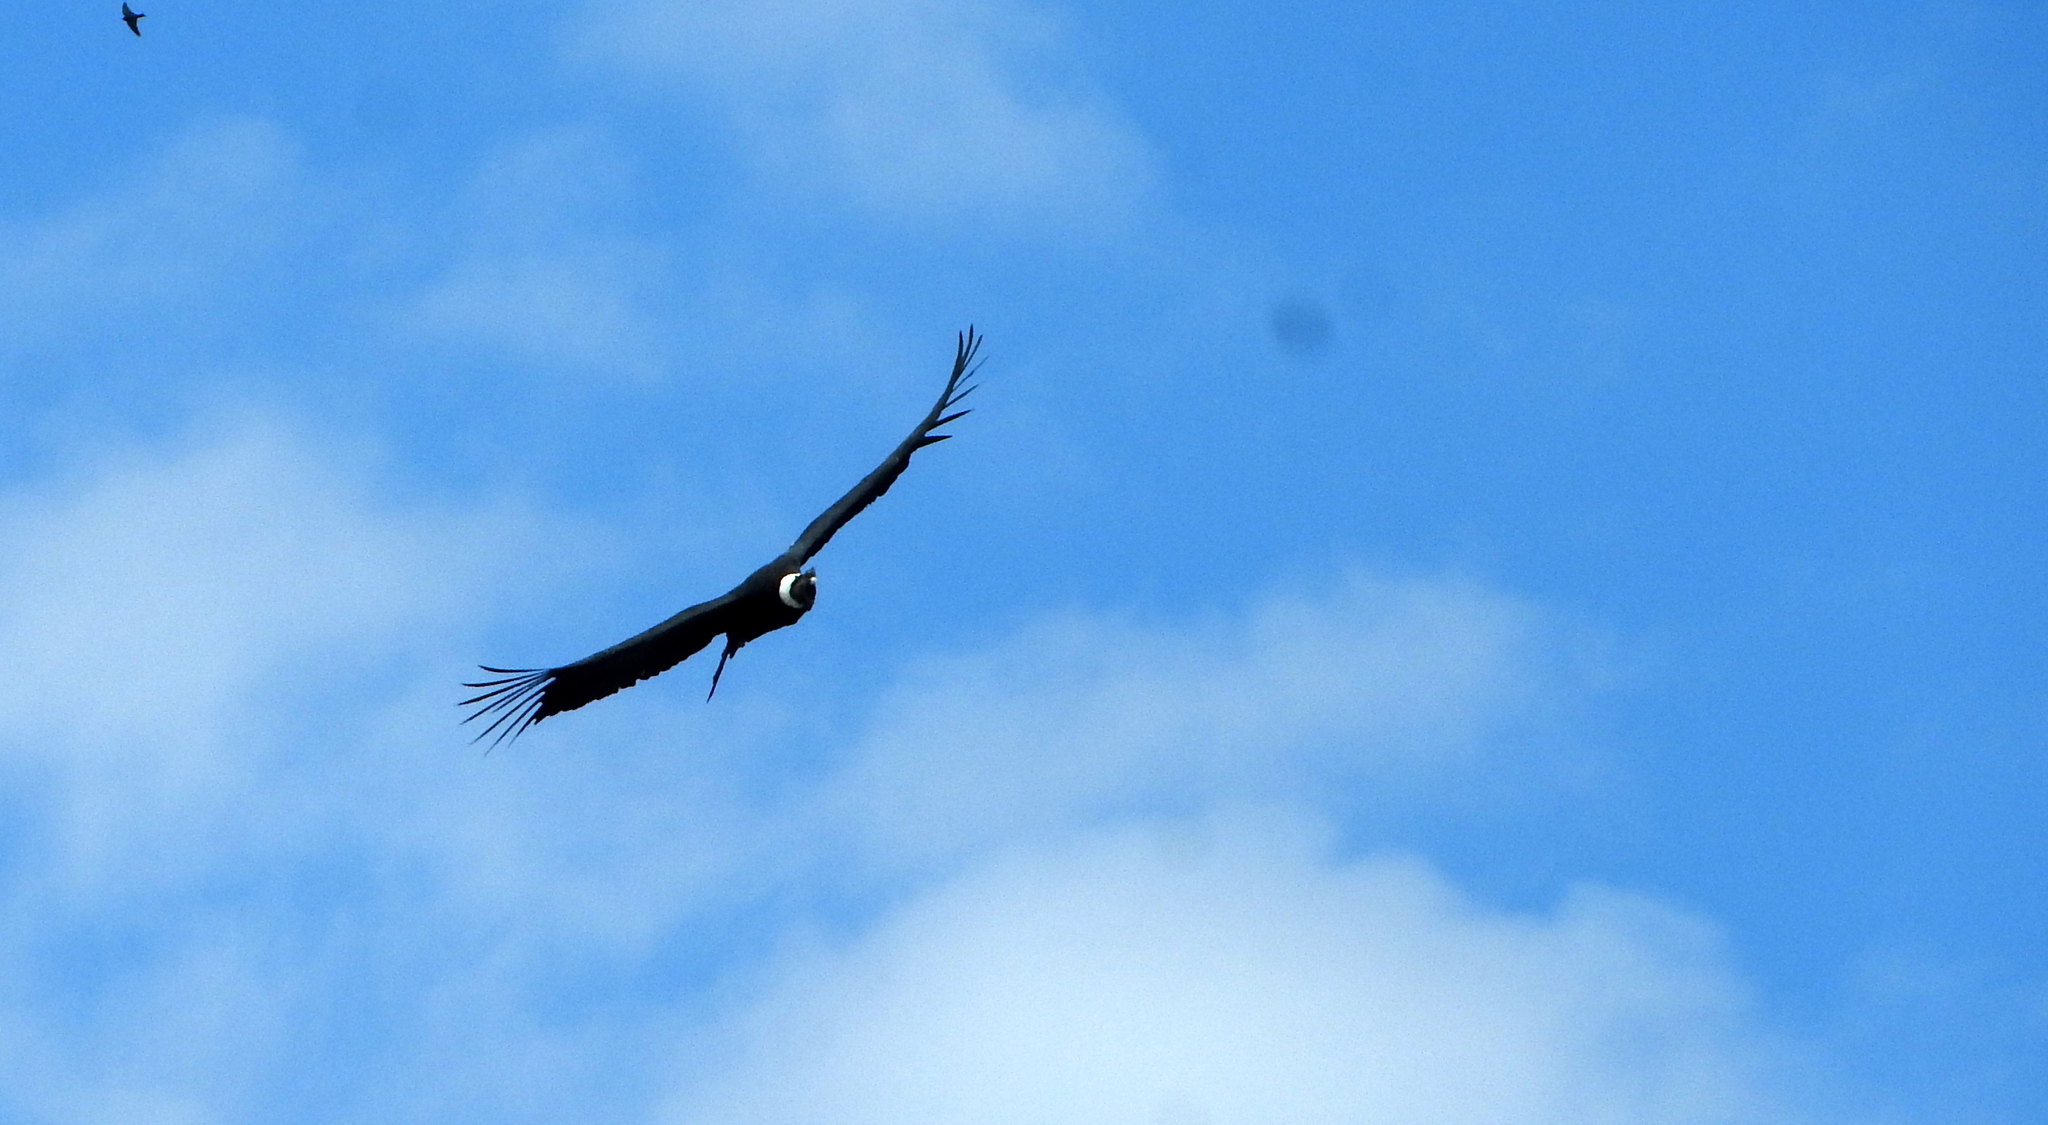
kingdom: Animalia
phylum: Chordata
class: Aves
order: Accipitriformes
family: Cathartidae
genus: Vultur
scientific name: Vultur gryphus
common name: Andean condor
